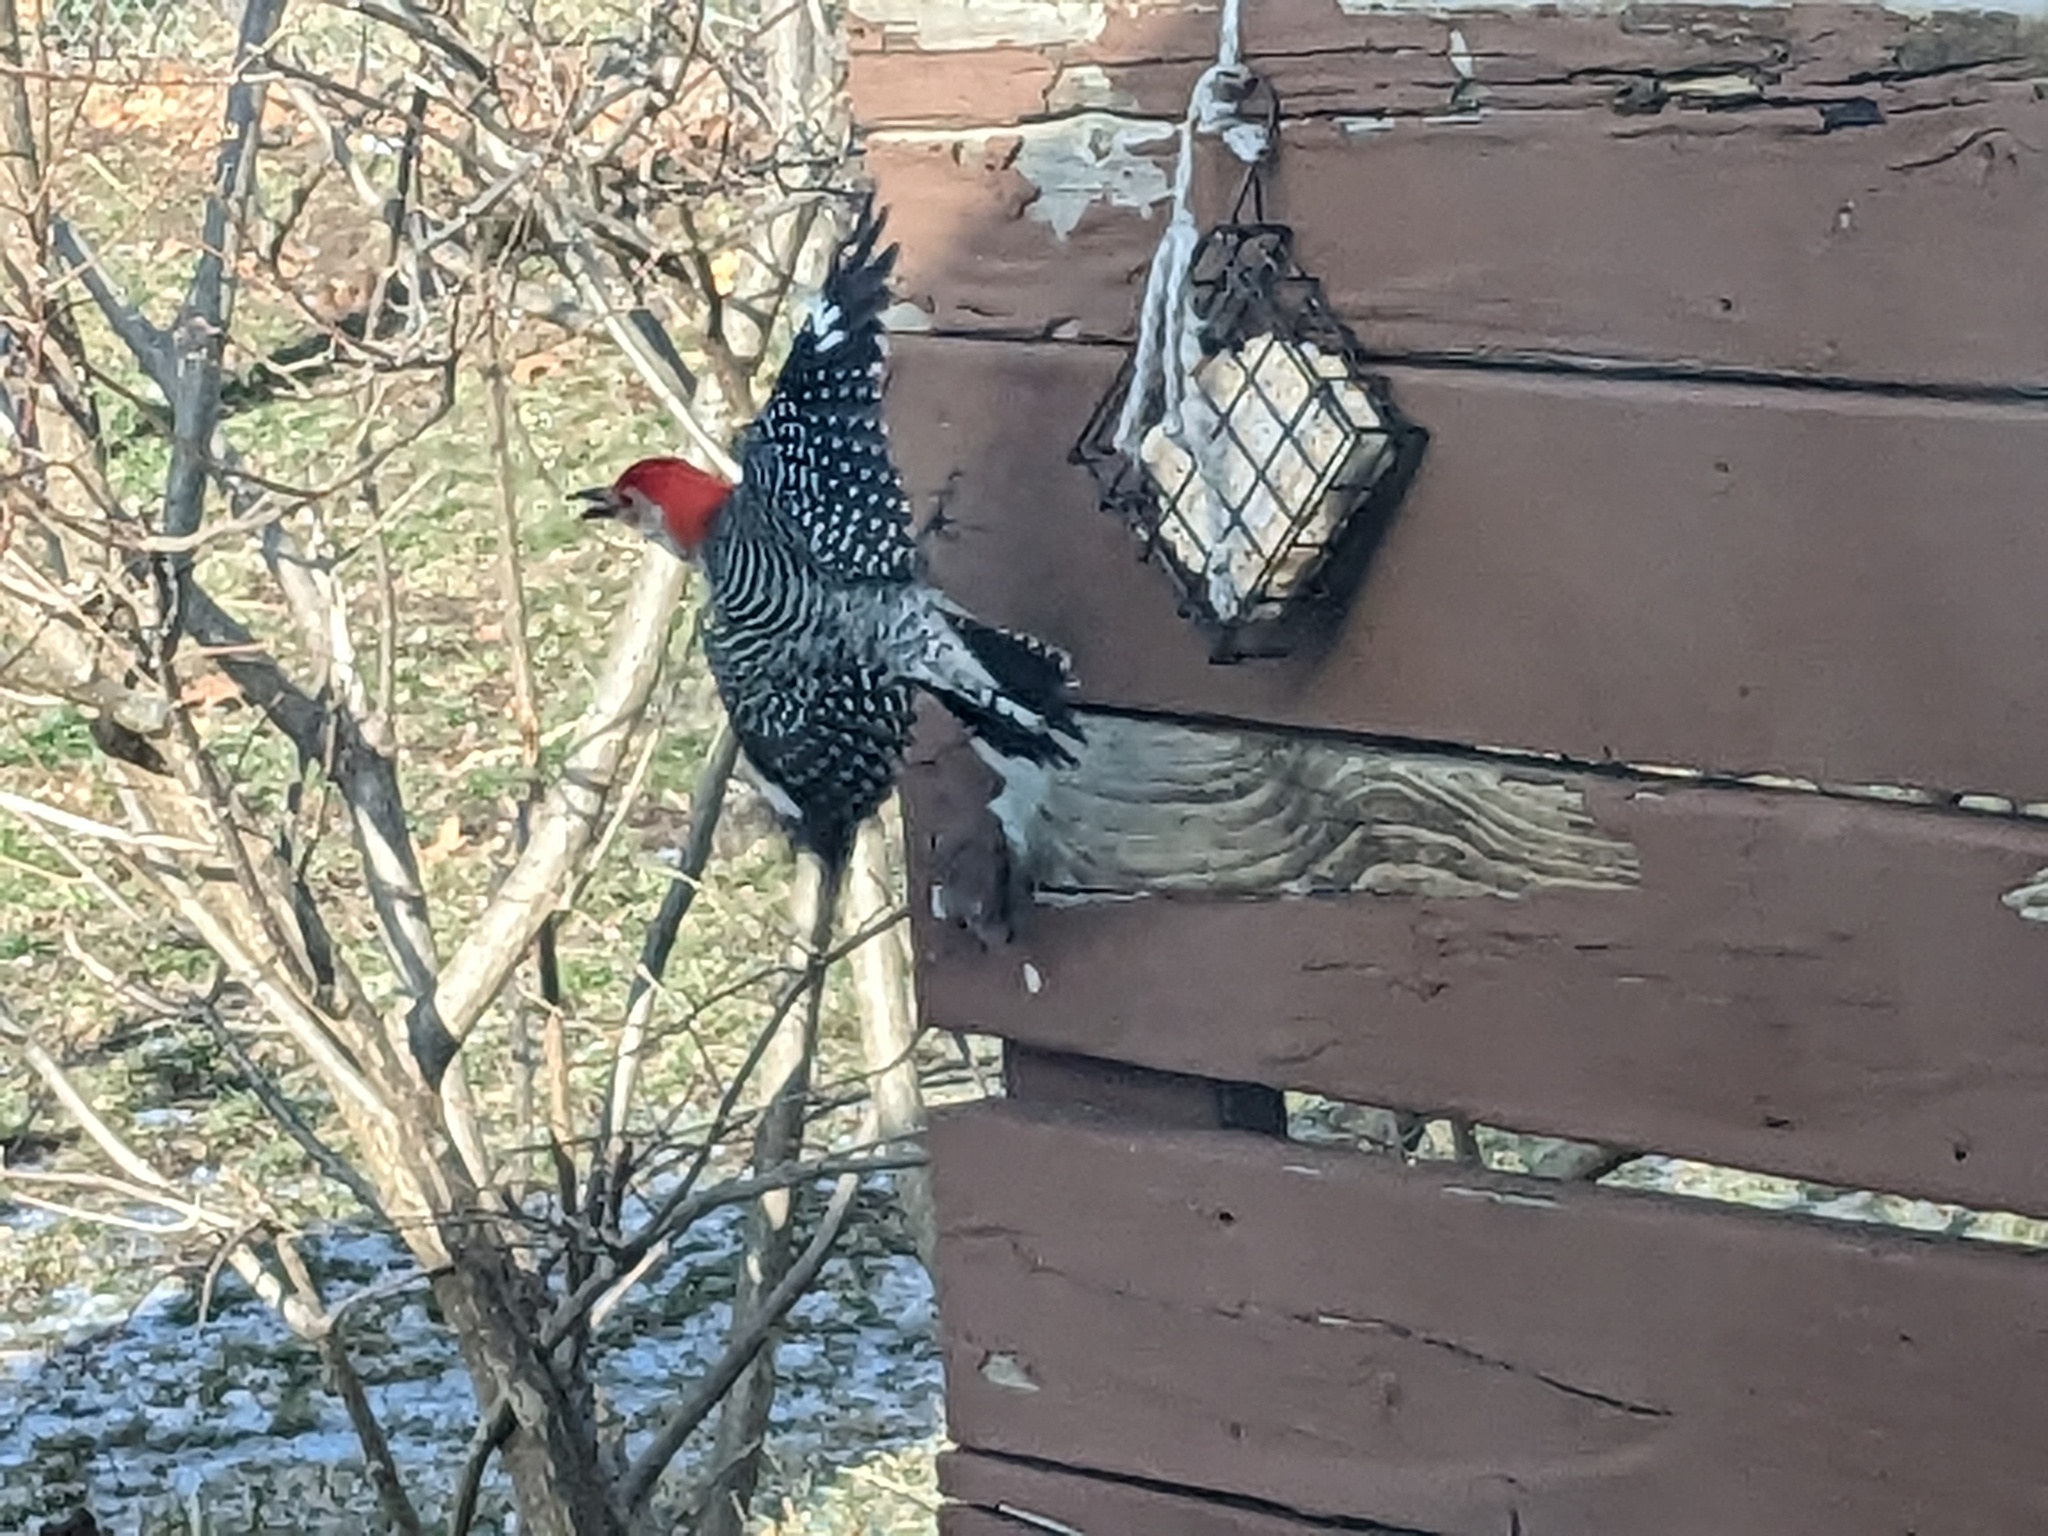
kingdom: Animalia
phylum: Chordata
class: Aves
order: Piciformes
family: Picidae
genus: Melanerpes
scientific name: Melanerpes carolinus
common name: Red-bellied woodpecker
